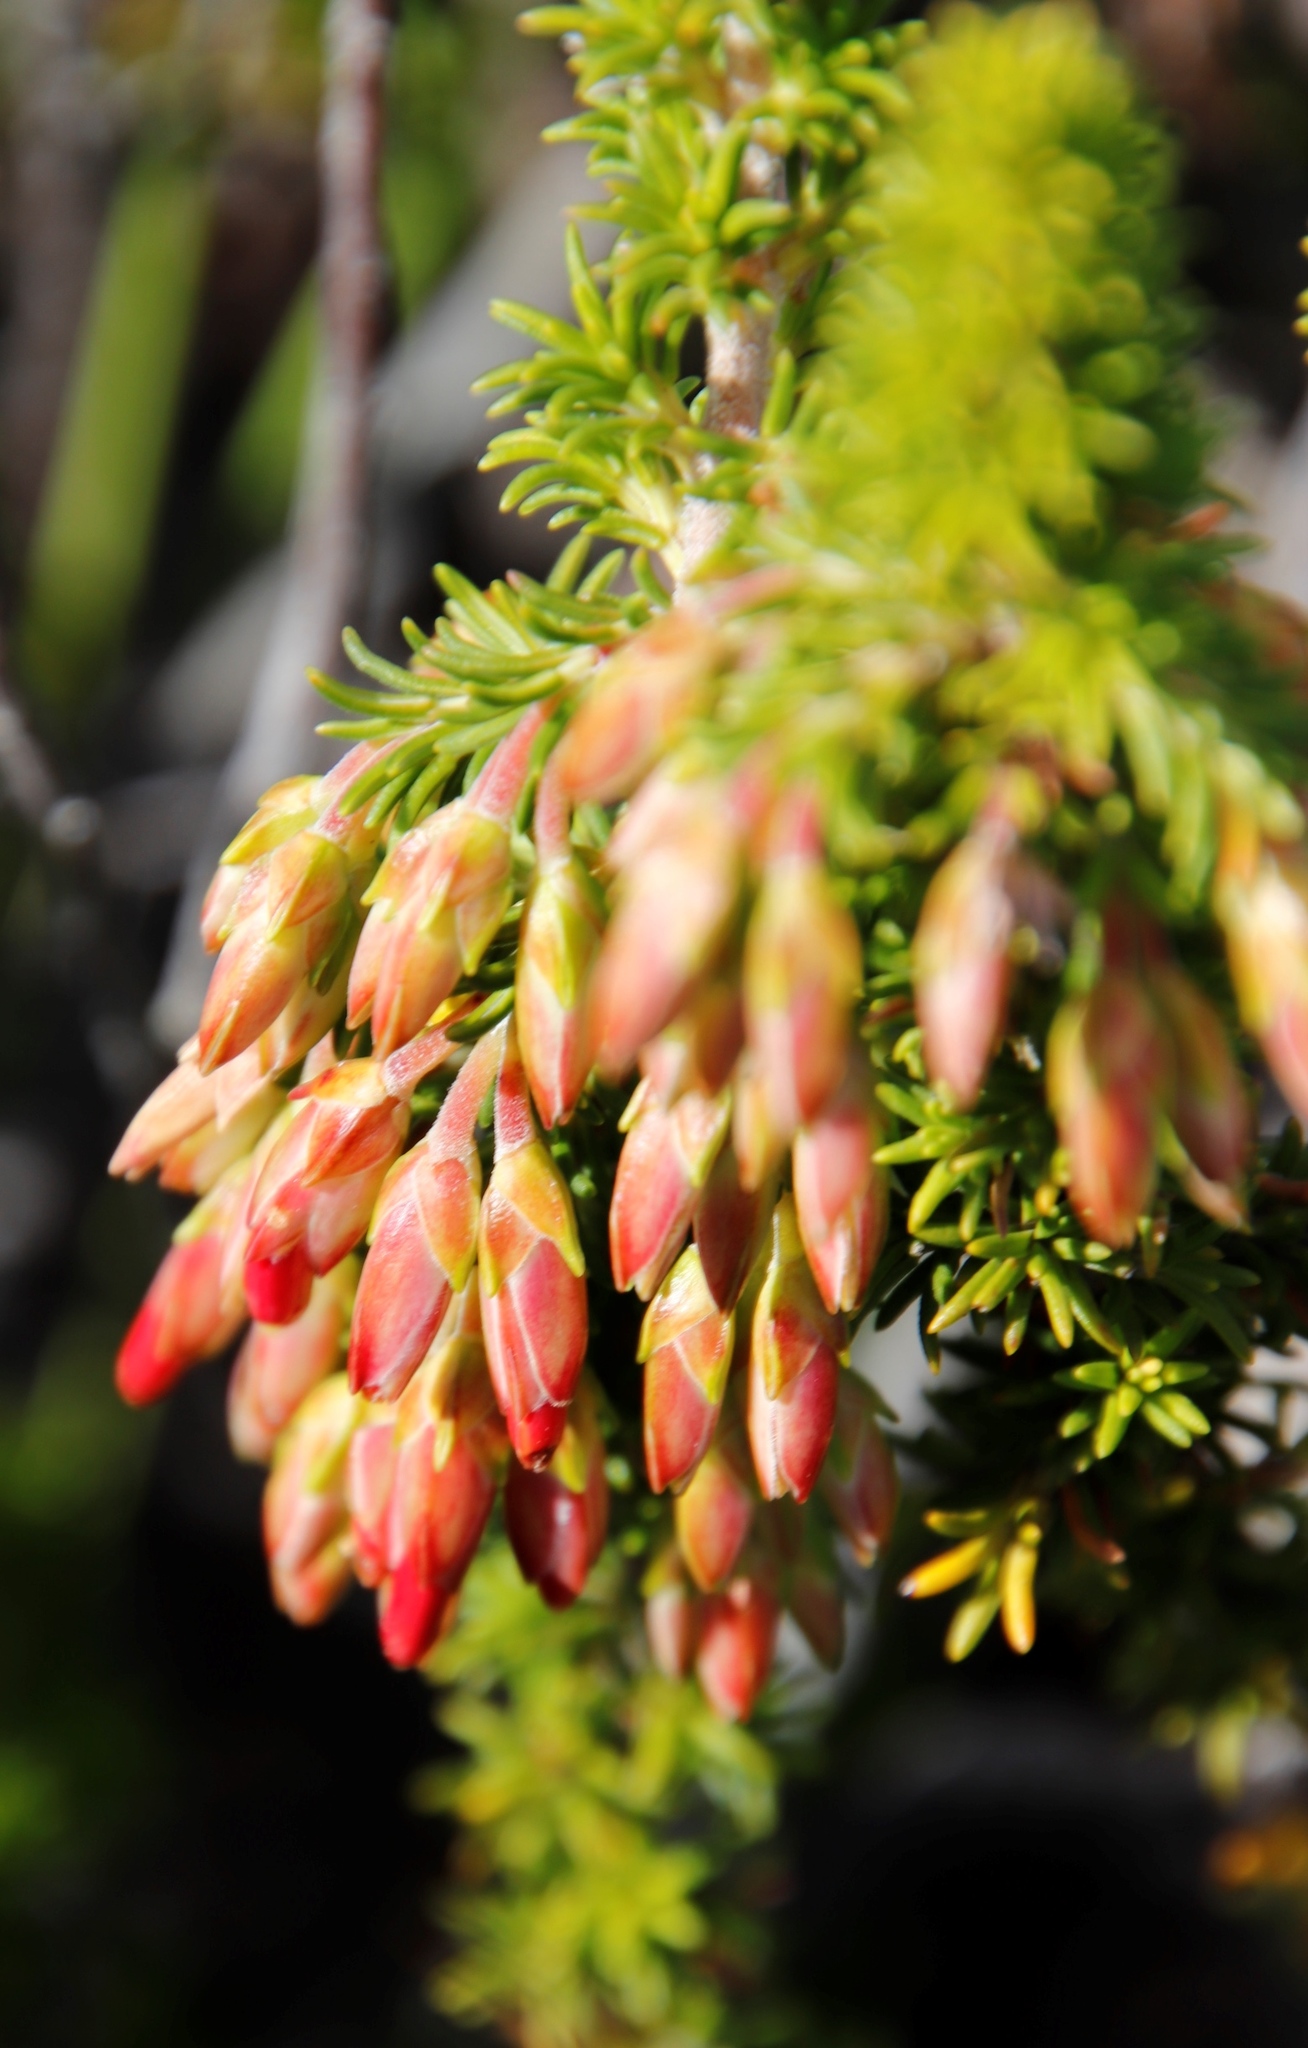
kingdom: Plantae
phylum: Tracheophyta
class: Magnoliopsida
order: Ericales
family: Ericaceae
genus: Erica
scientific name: Erica coccinea
